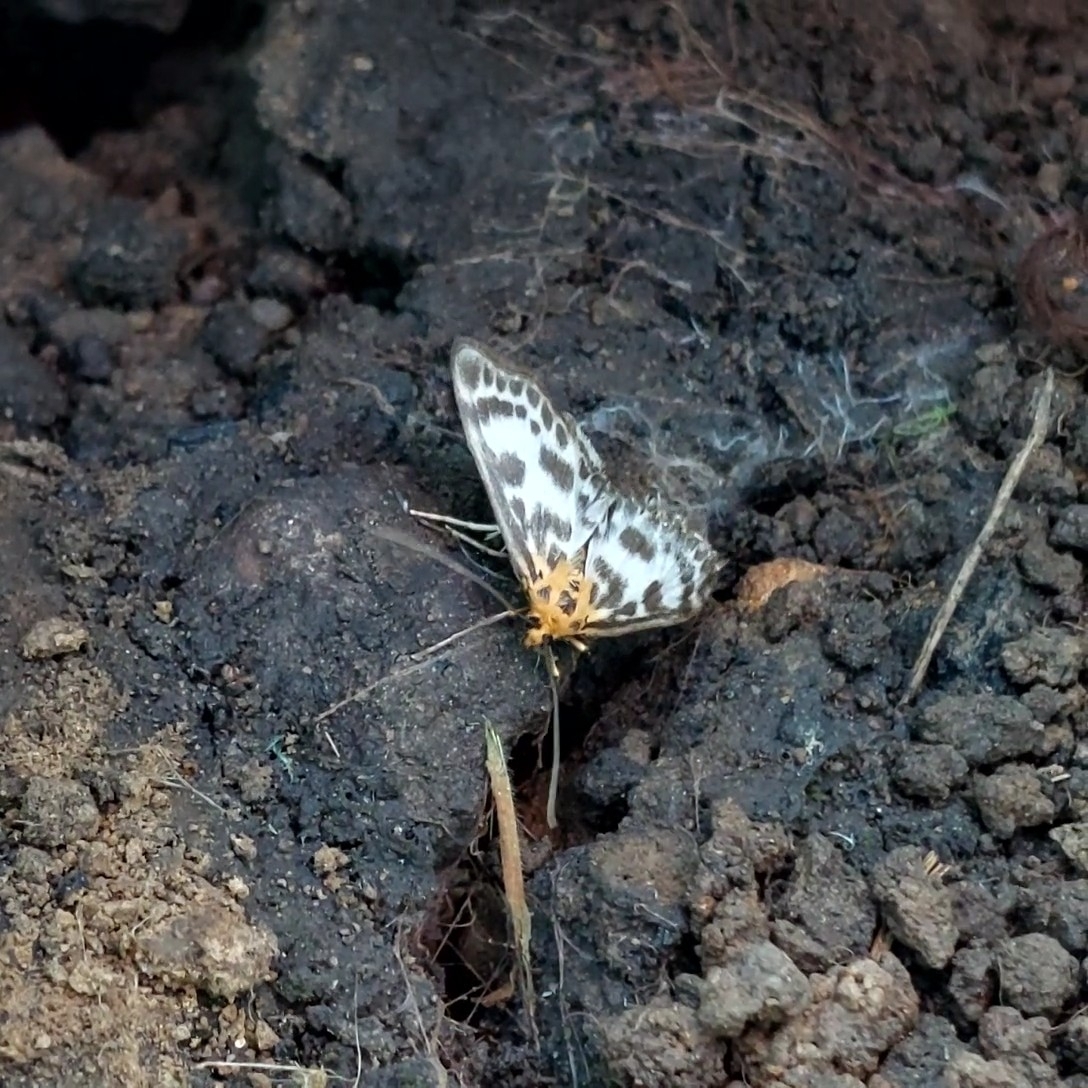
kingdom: Animalia
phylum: Arthropoda
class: Insecta
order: Lepidoptera
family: Crambidae
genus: Anania
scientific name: Anania hortulata
